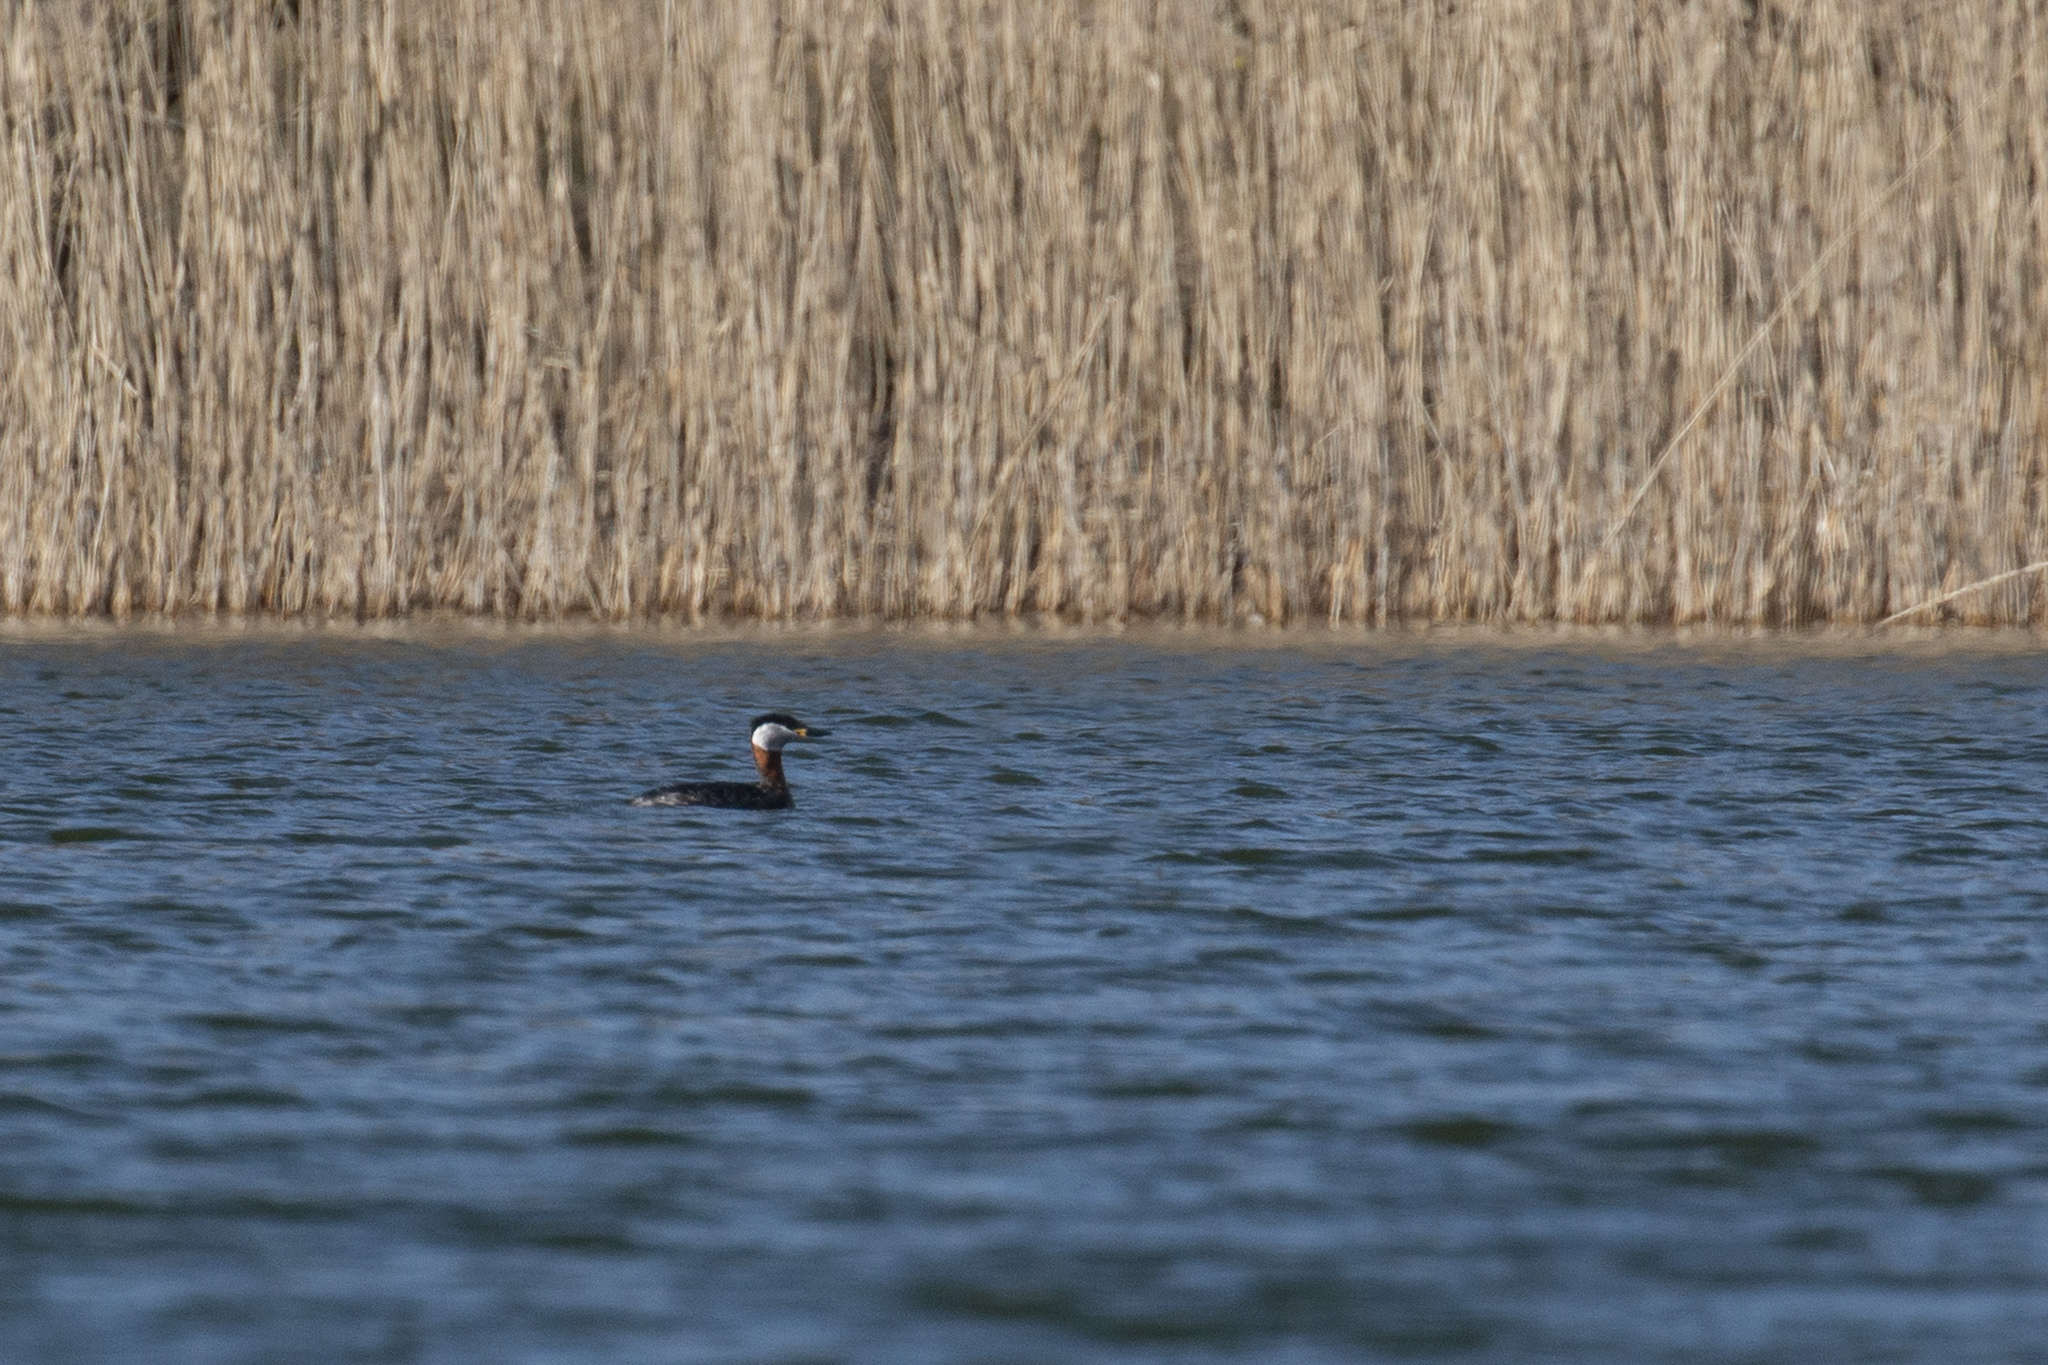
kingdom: Animalia
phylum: Chordata
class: Aves
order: Podicipediformes
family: Podicipedidae
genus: Podiceps
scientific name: Podiceps grisegena
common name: Red-necked grebe
